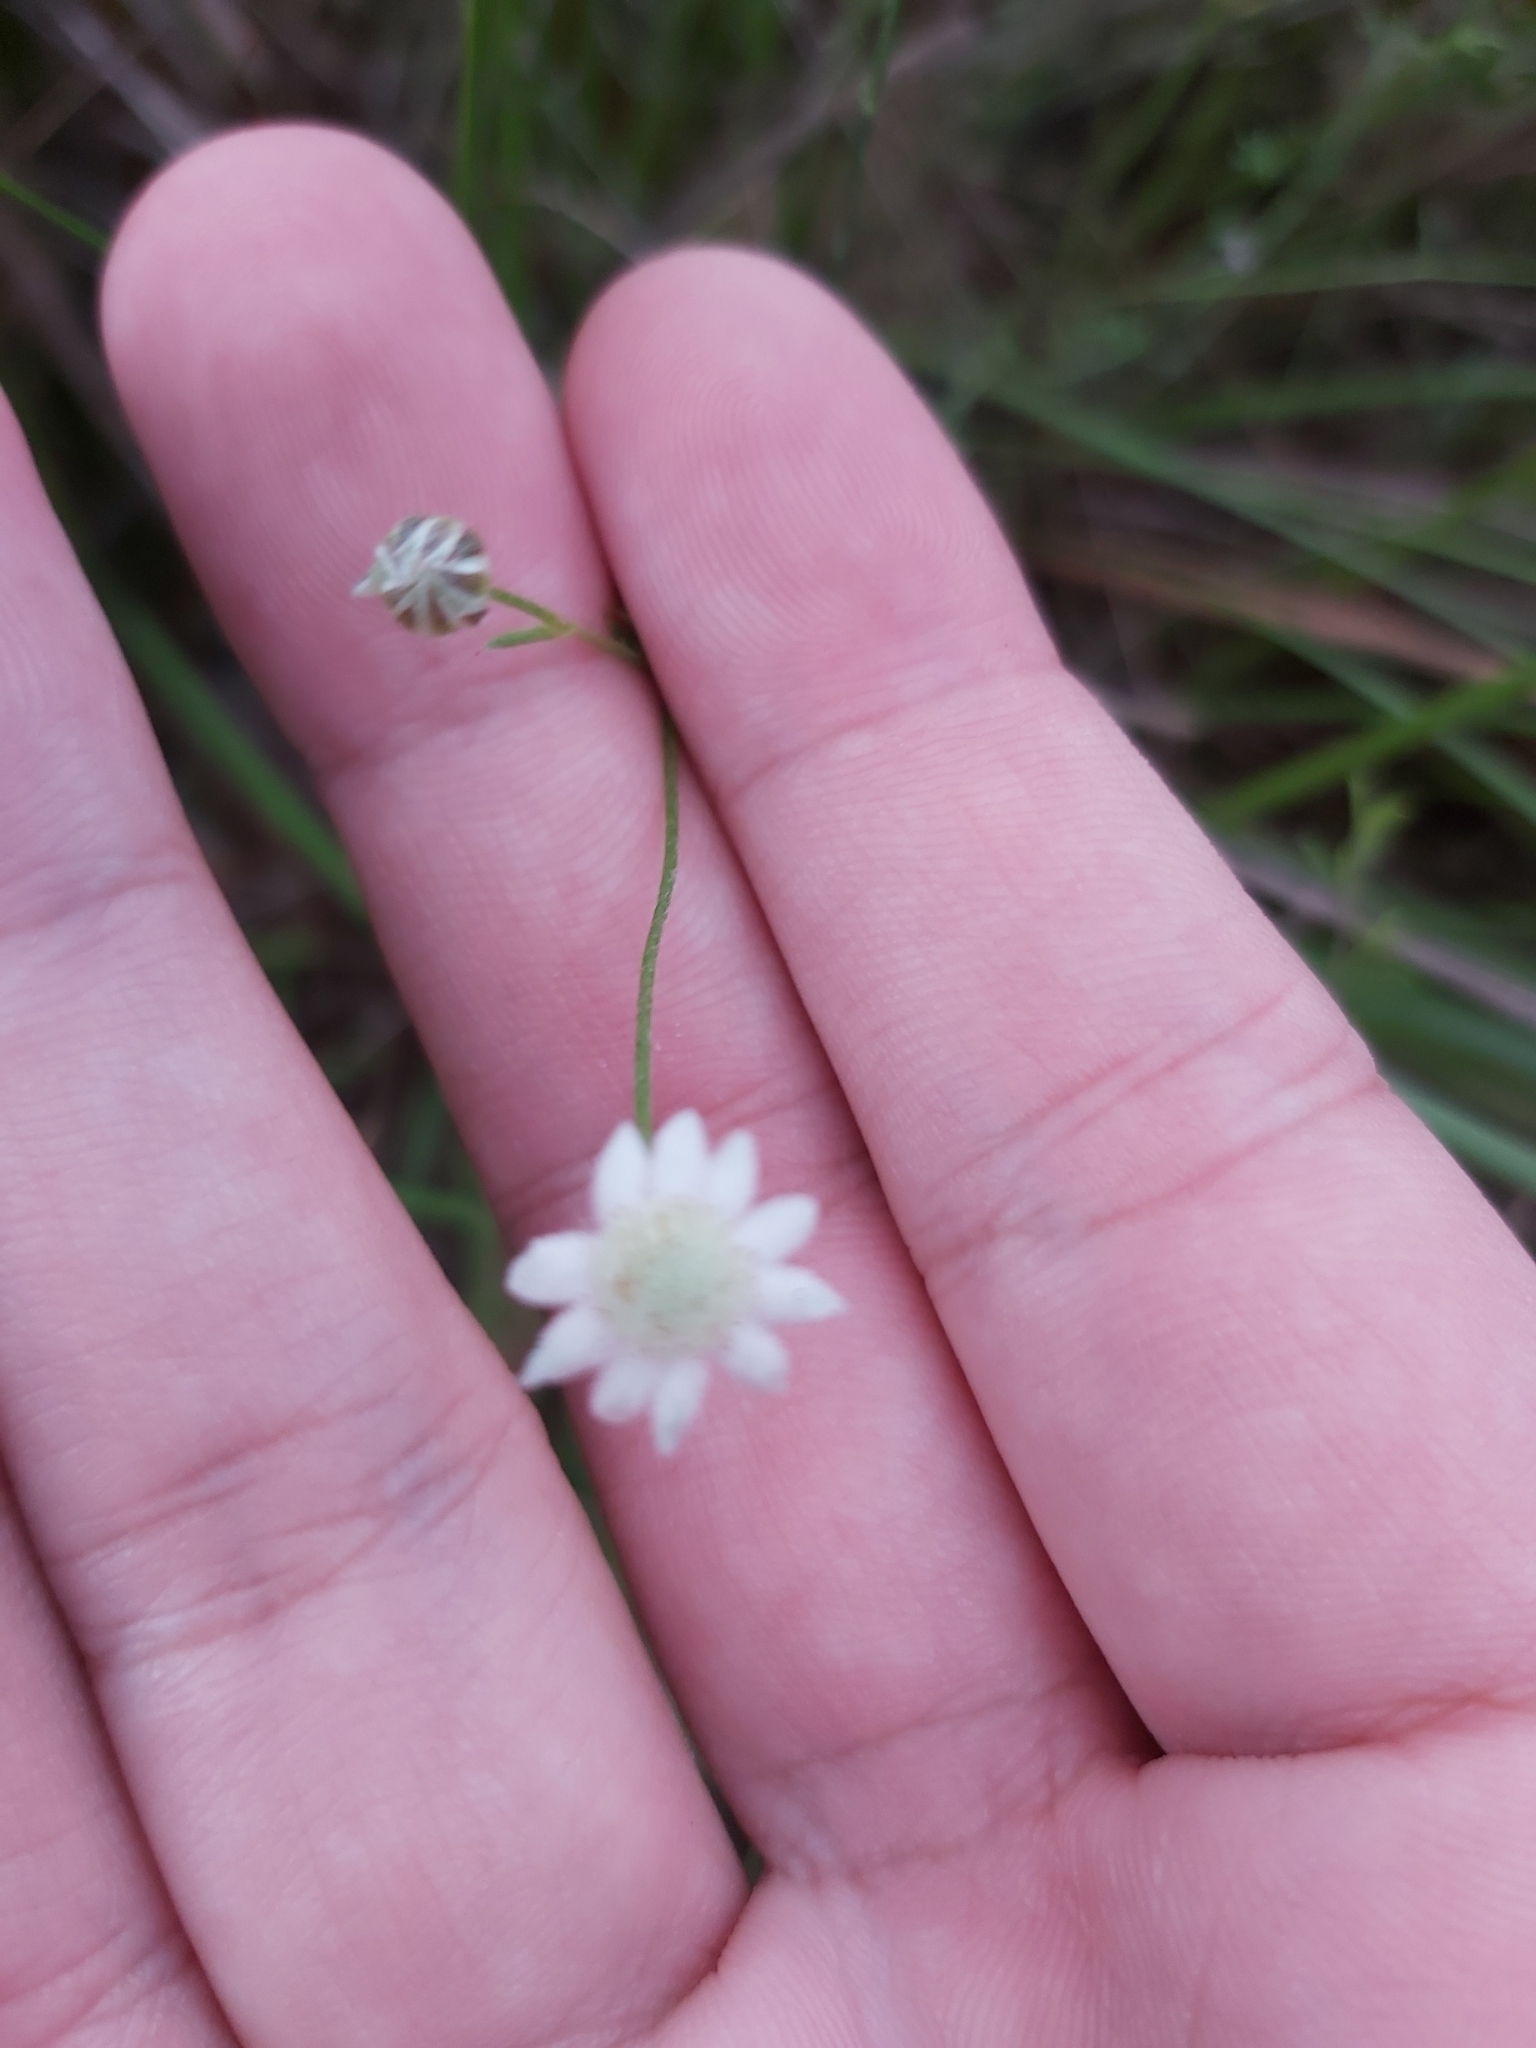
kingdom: Plantae
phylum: Tracheophyta
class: Magnoliopsida
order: Apiales
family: Apiaceae
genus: Actinotus
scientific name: Actinotus minor
